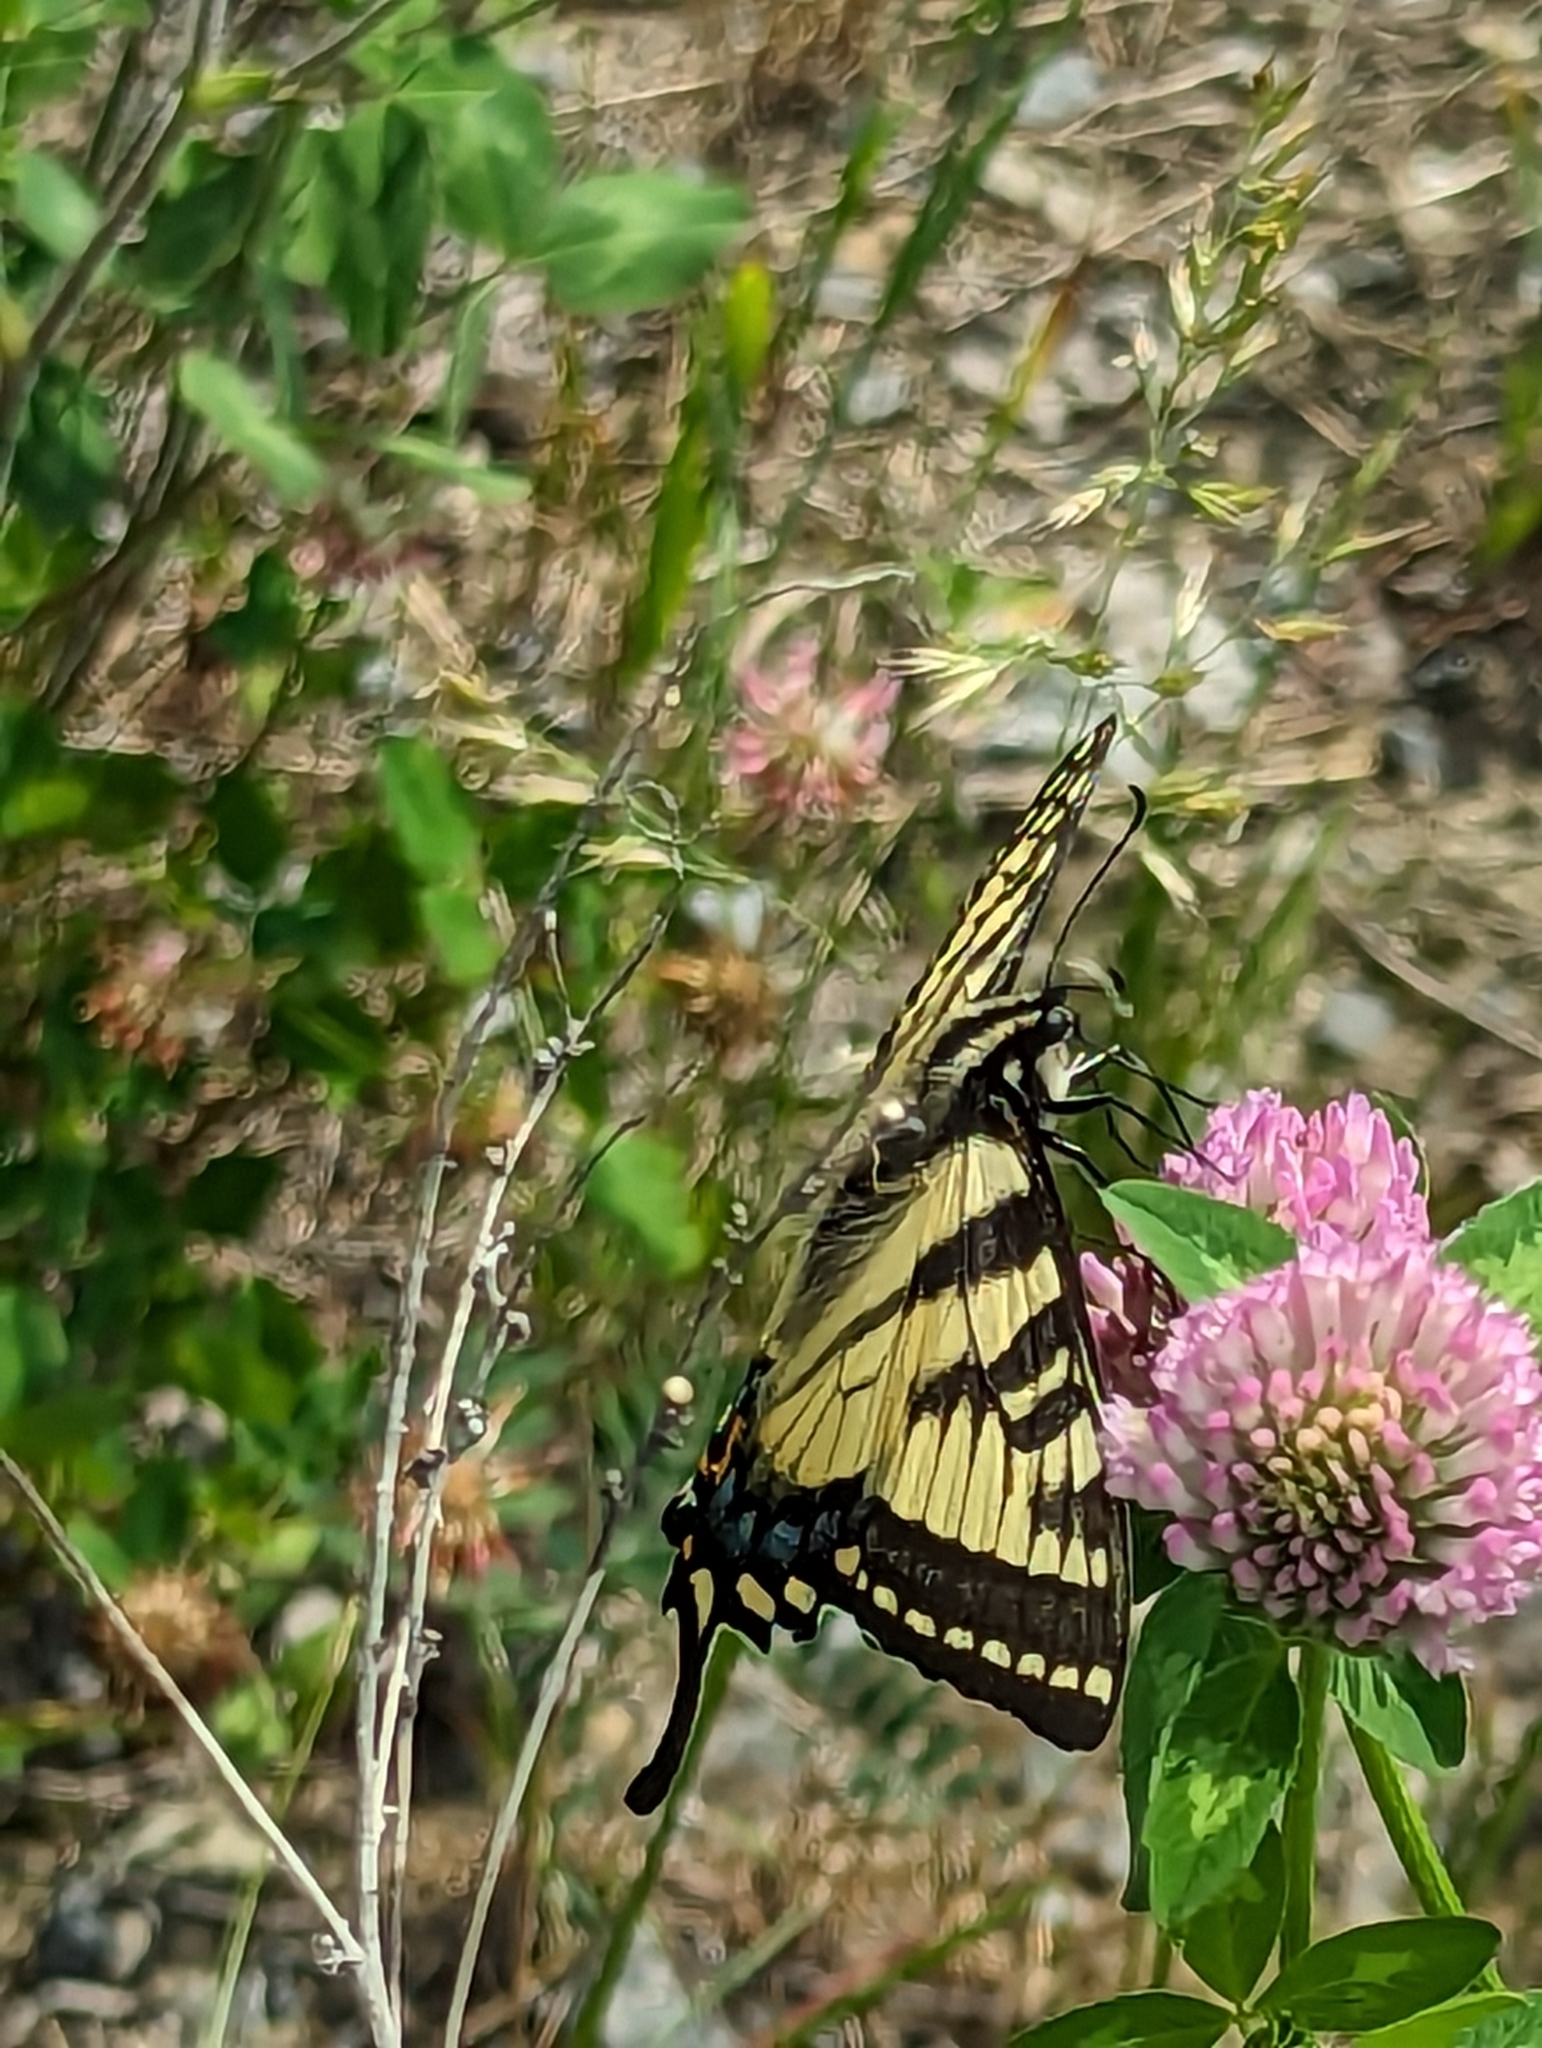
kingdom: Animalia
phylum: Arthropoda
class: Insecta
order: Lepidoptera
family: Papilionidae
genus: Papilio
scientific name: Papilio canadensis
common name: Canadian tiger swallowtail
